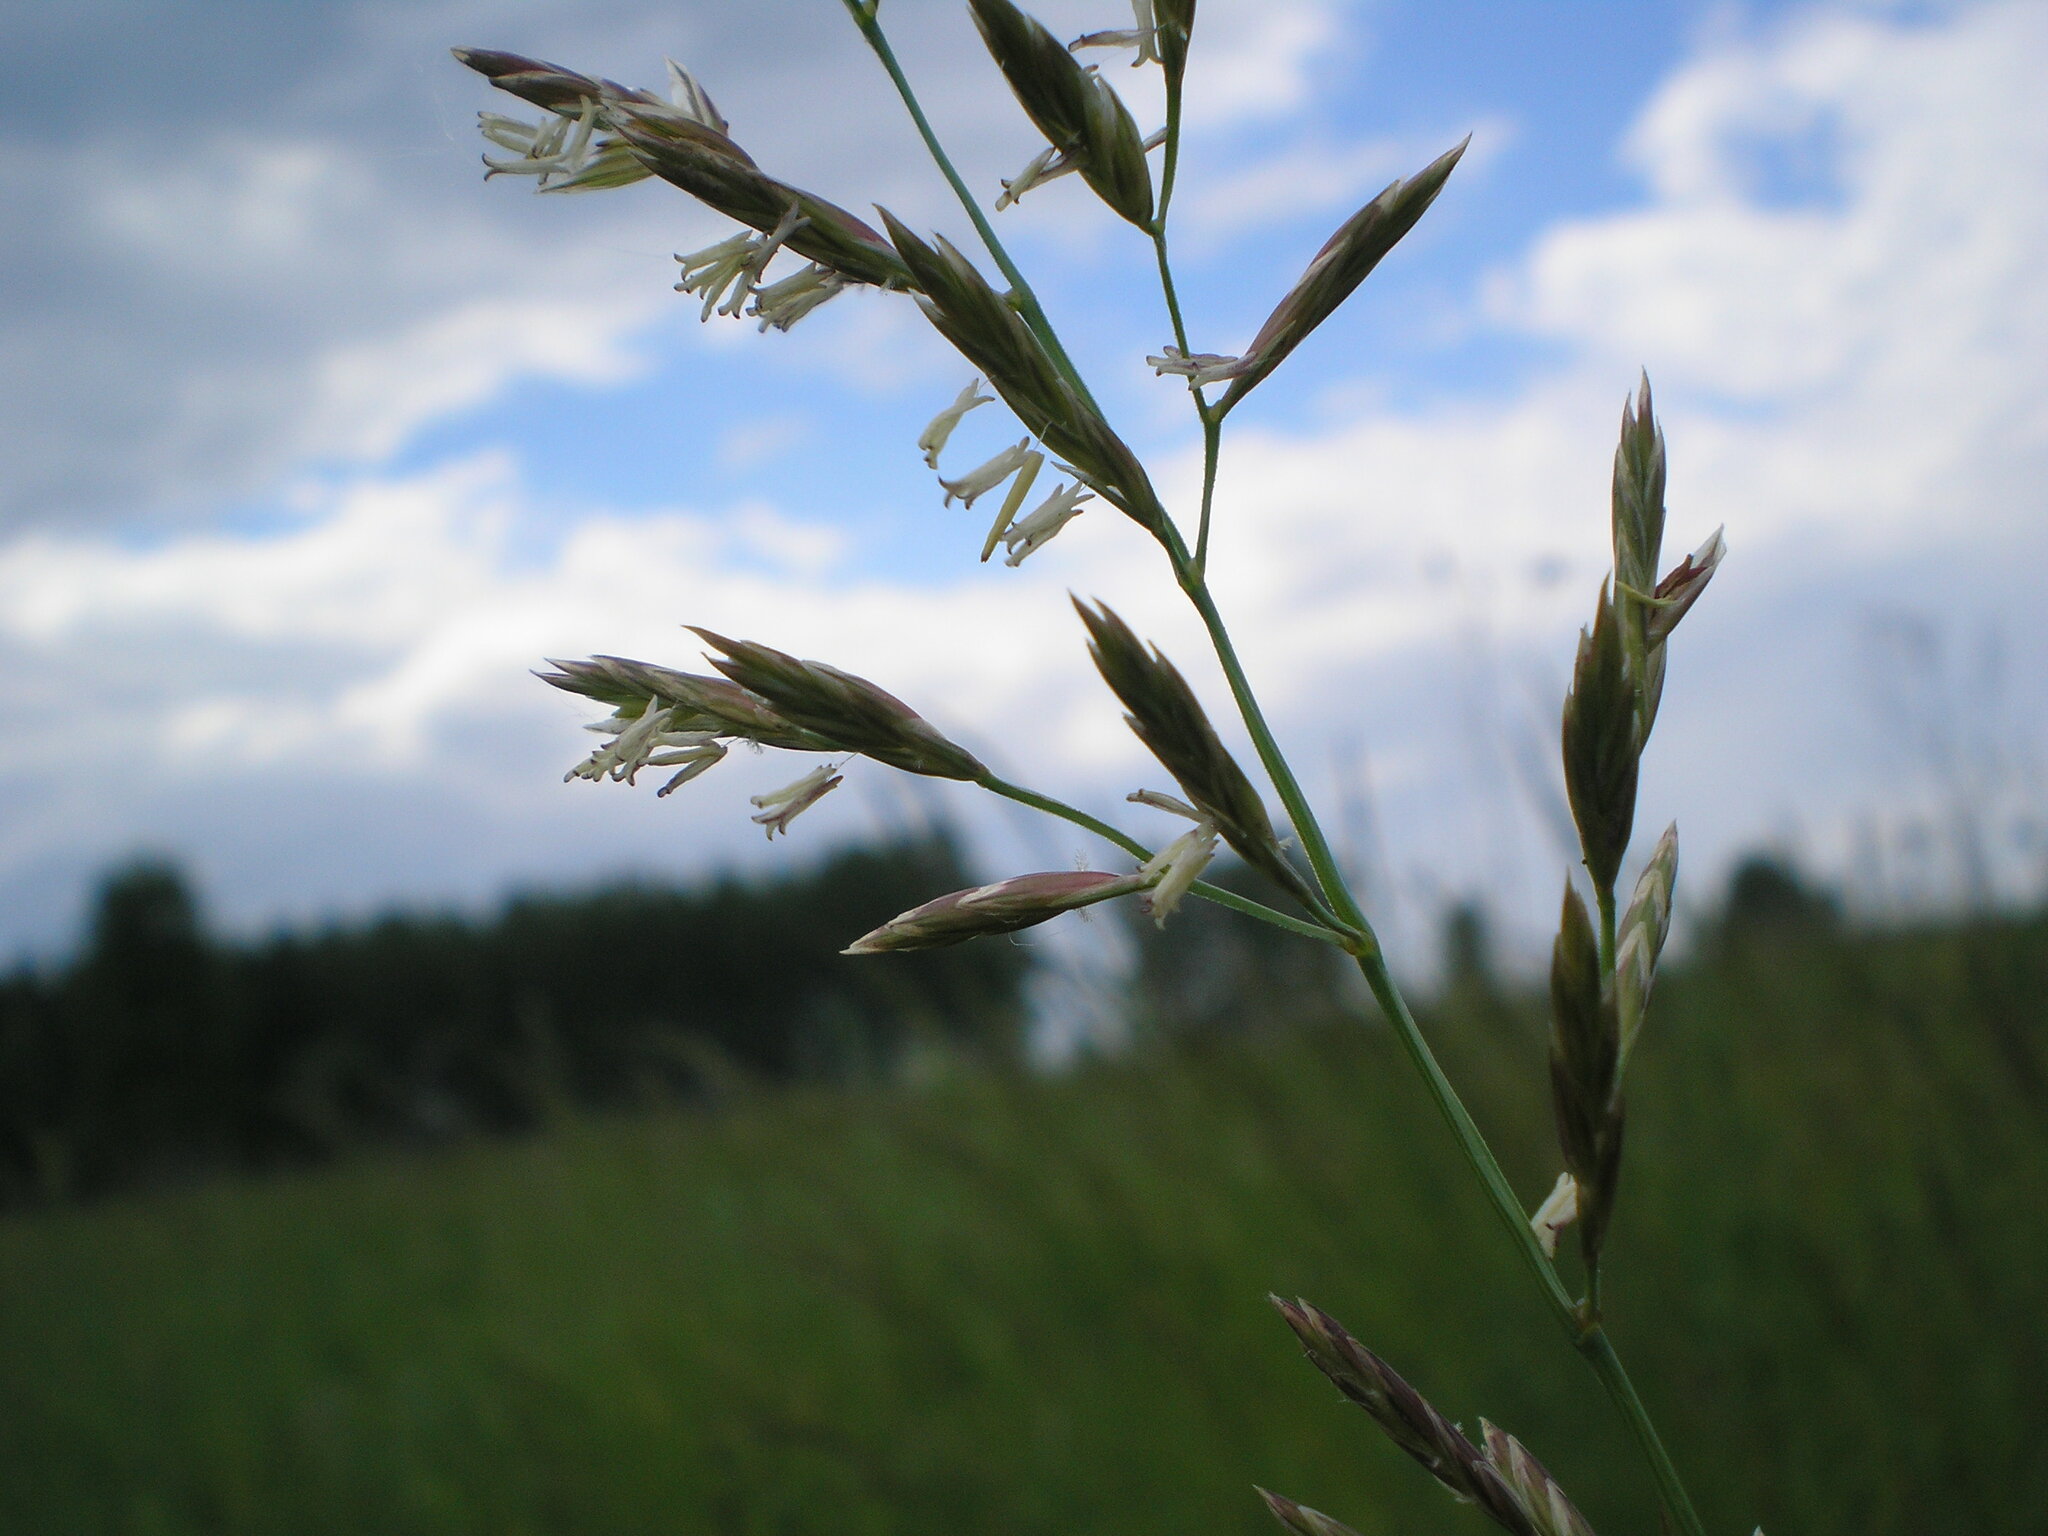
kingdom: Plantae
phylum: Tracheophyta
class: Liliopsida
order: Poales
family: Poaceae
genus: Lolium
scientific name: Lolium pratense
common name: Dover grass
